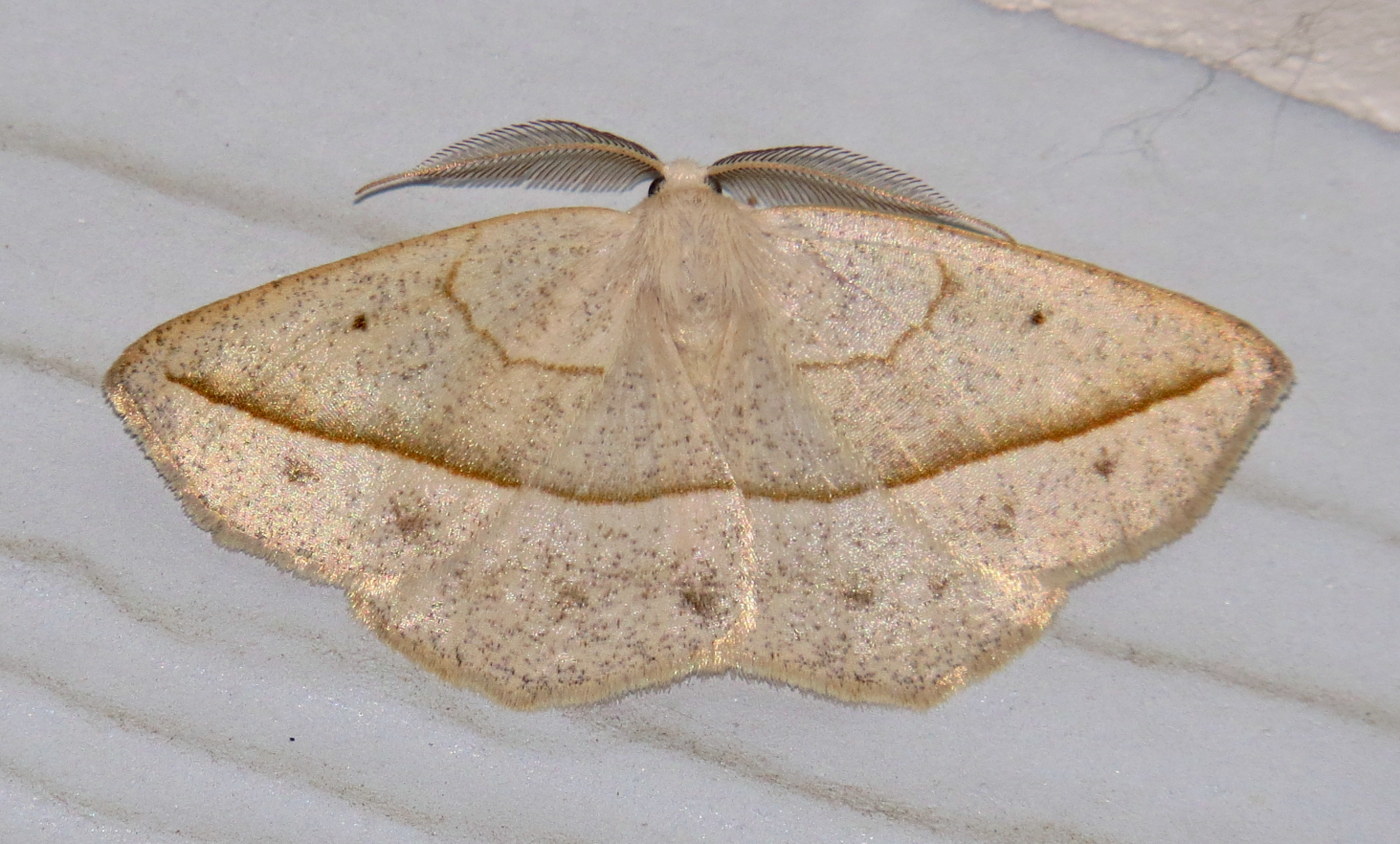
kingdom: Animalia
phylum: Arthropoda
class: Insecta
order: Lepidoptera
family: Geometridae
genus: Eusarca
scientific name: Eusarca confusaria
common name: Confused eusarca
